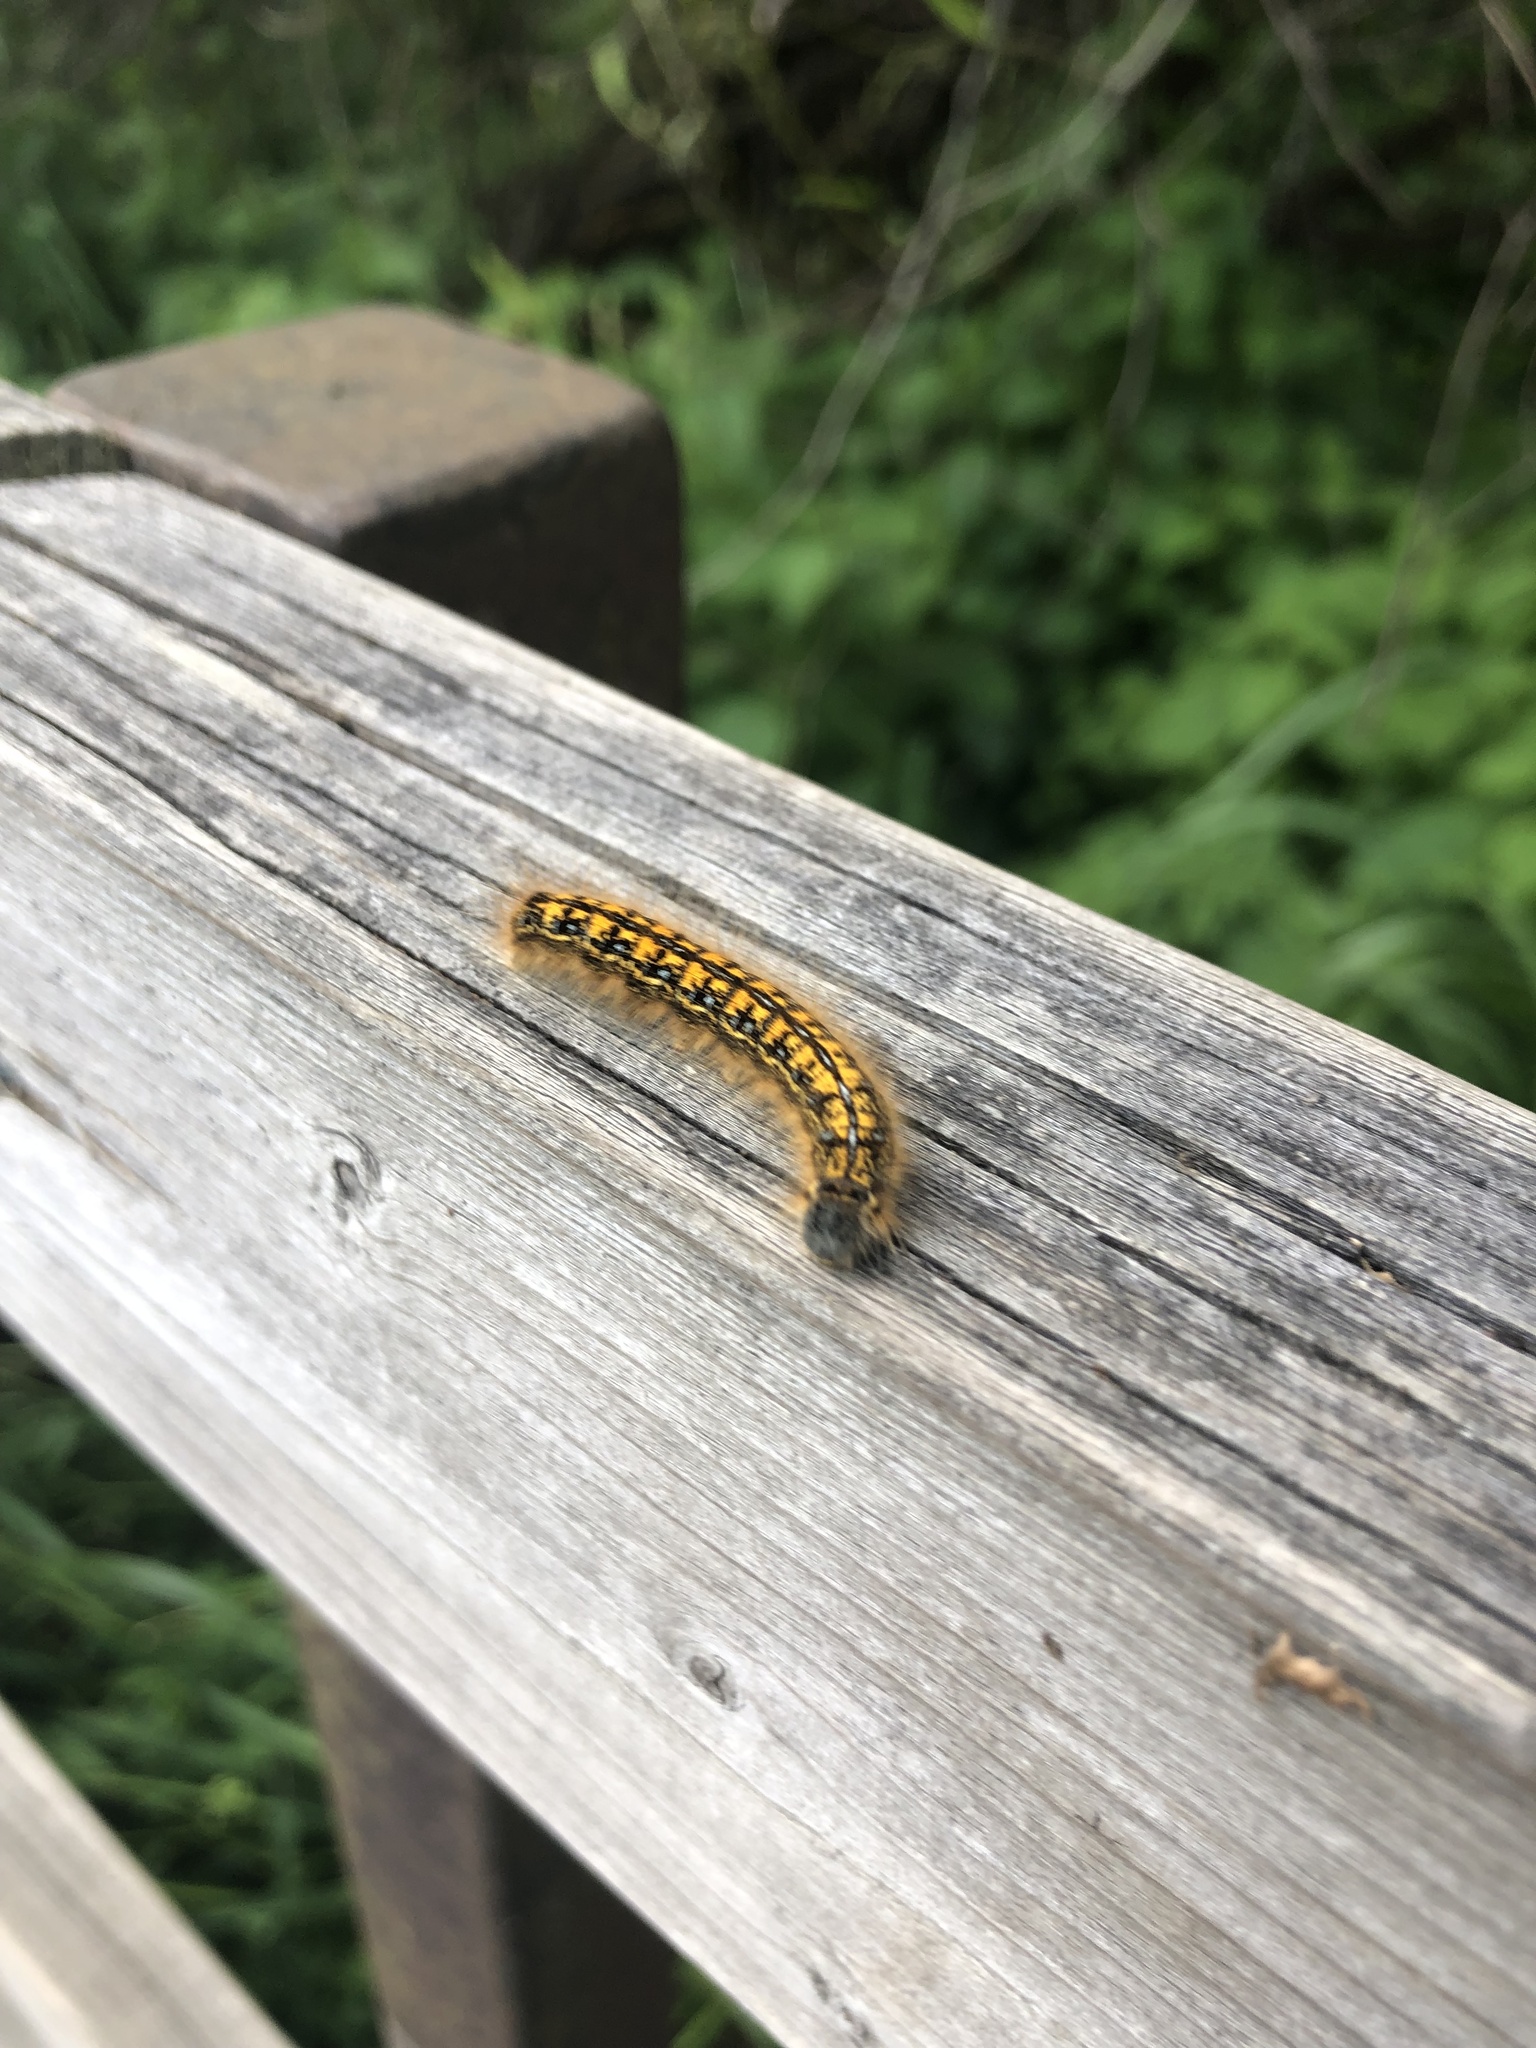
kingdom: Animalia
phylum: Arthropoda
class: Insecta
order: Lepidoptera
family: Lasiocampidae
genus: Malacosoma
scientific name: Malacosoma californica
